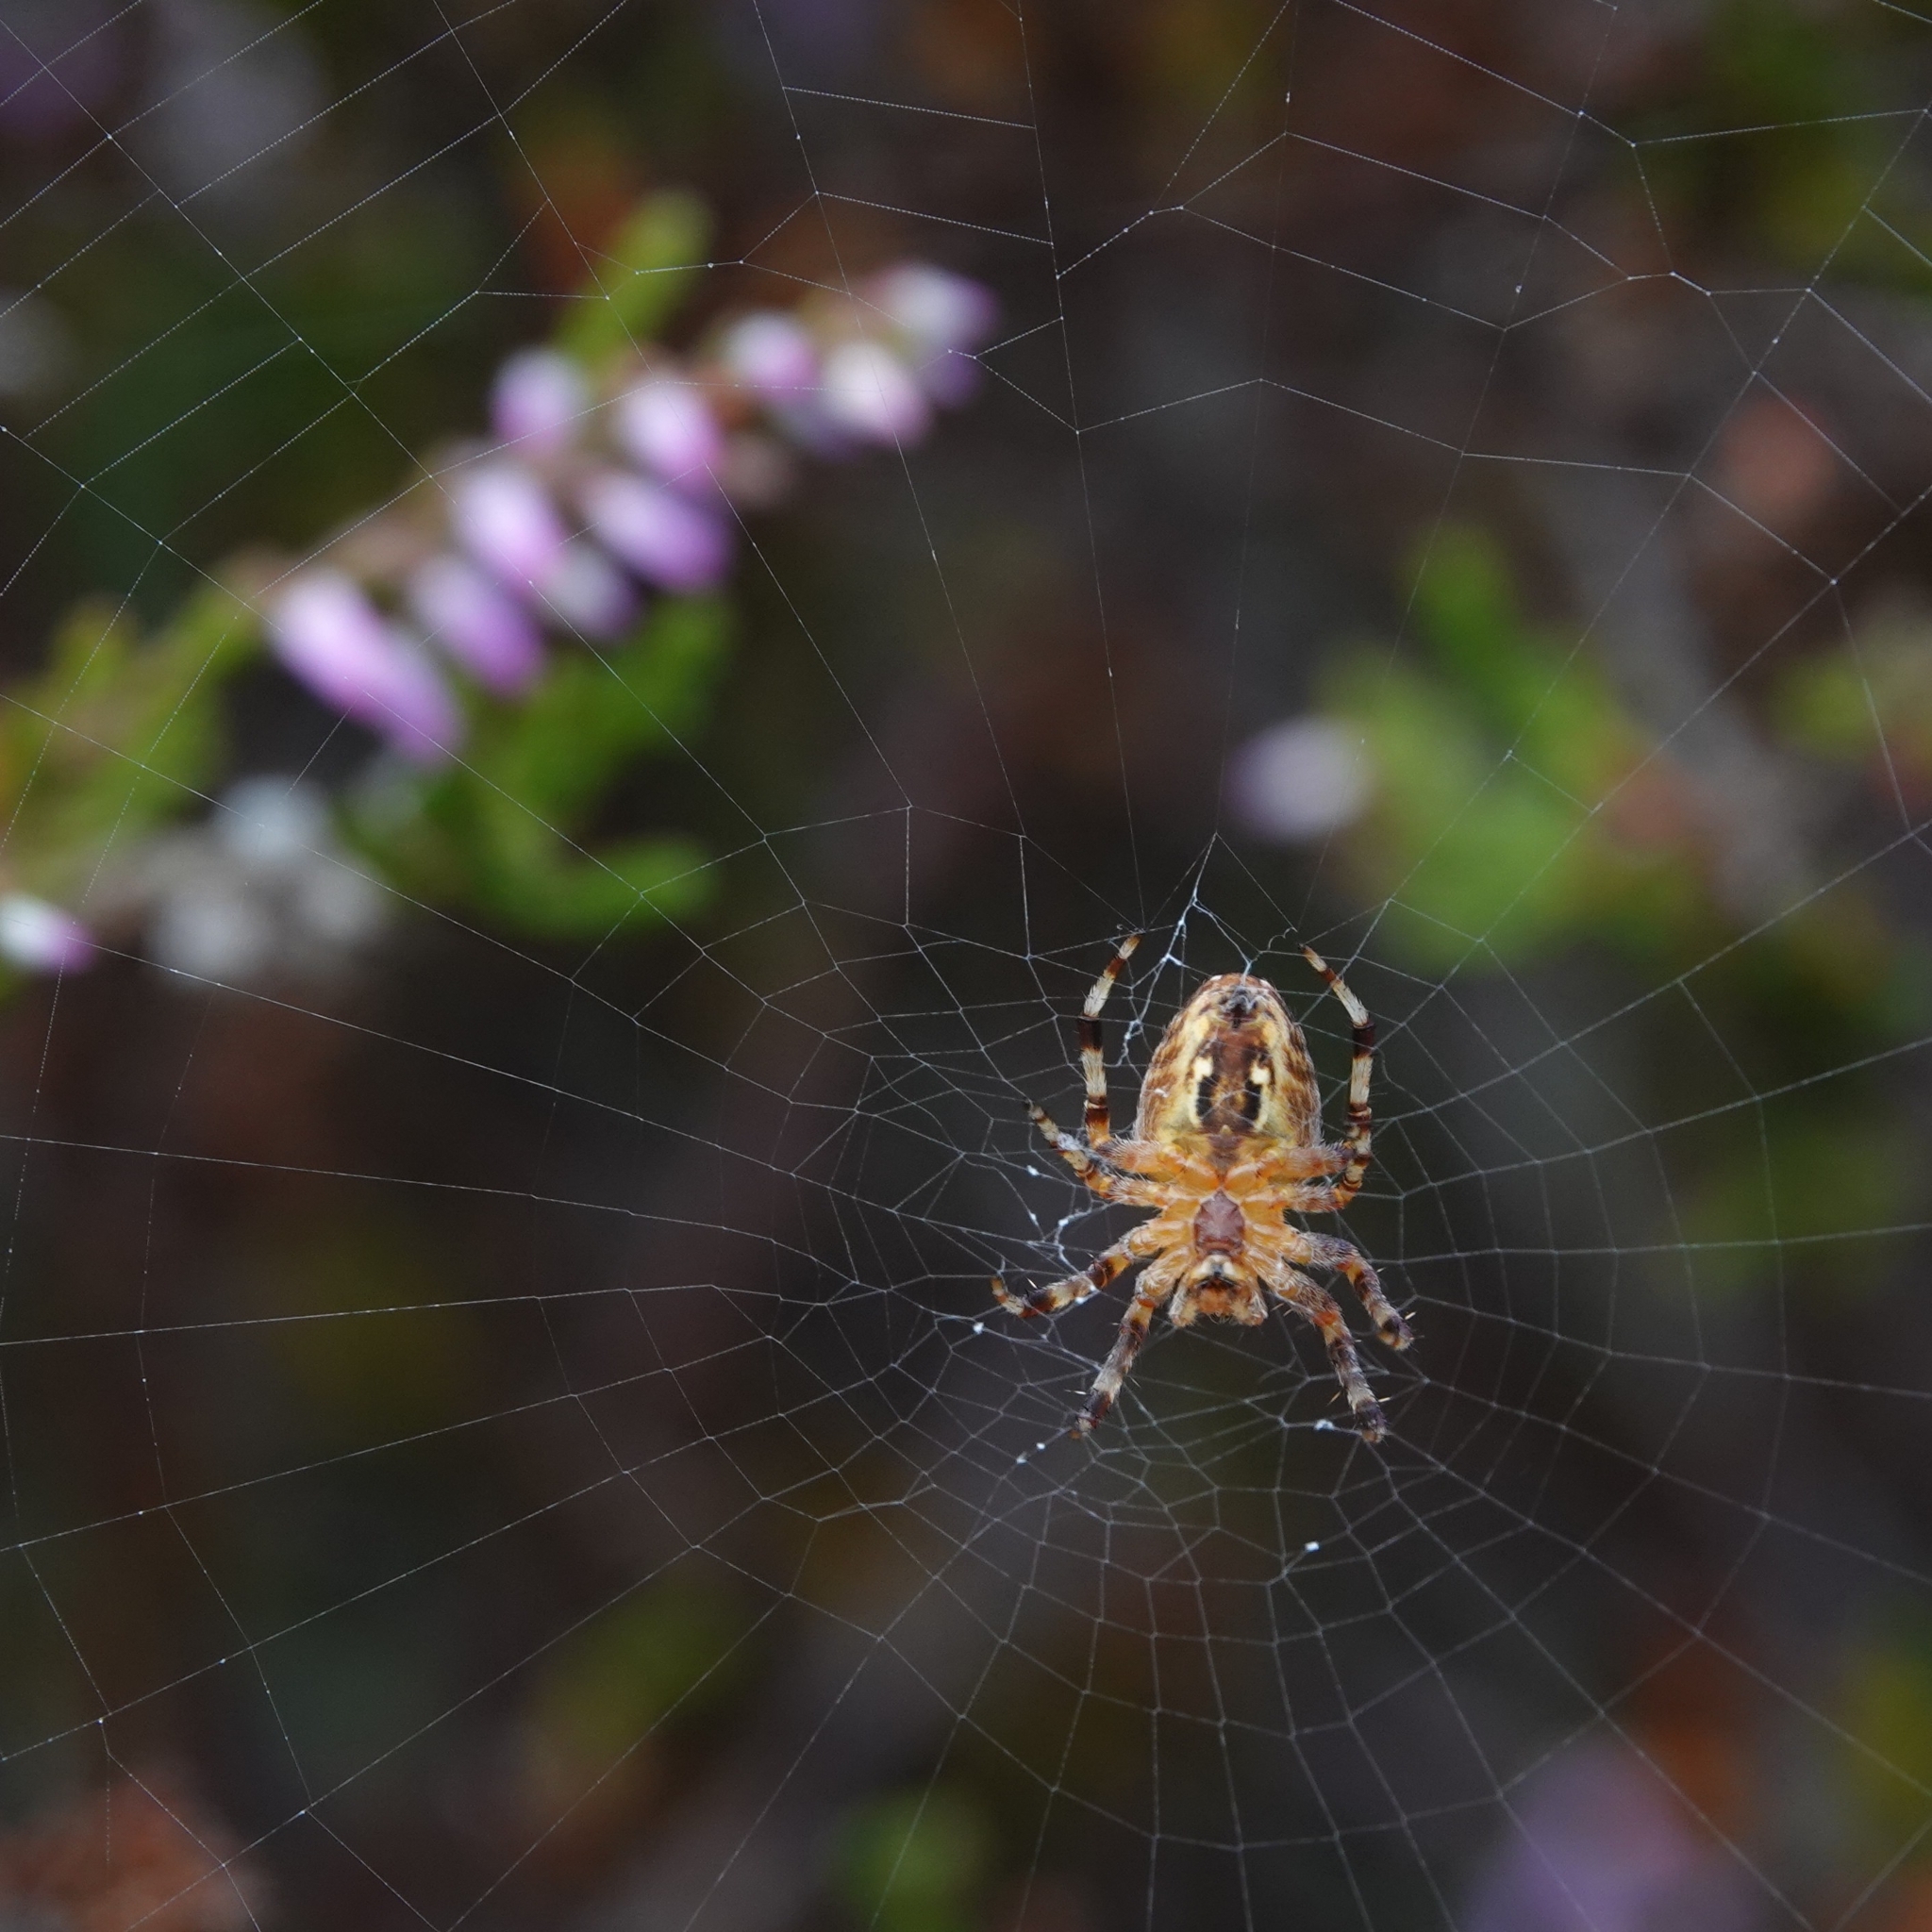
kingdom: Animalia
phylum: Arthropoda
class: Arachnida
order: Araneae
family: Araneidae
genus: Araneus
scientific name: Araneus diadematus
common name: Cross orbweaver
